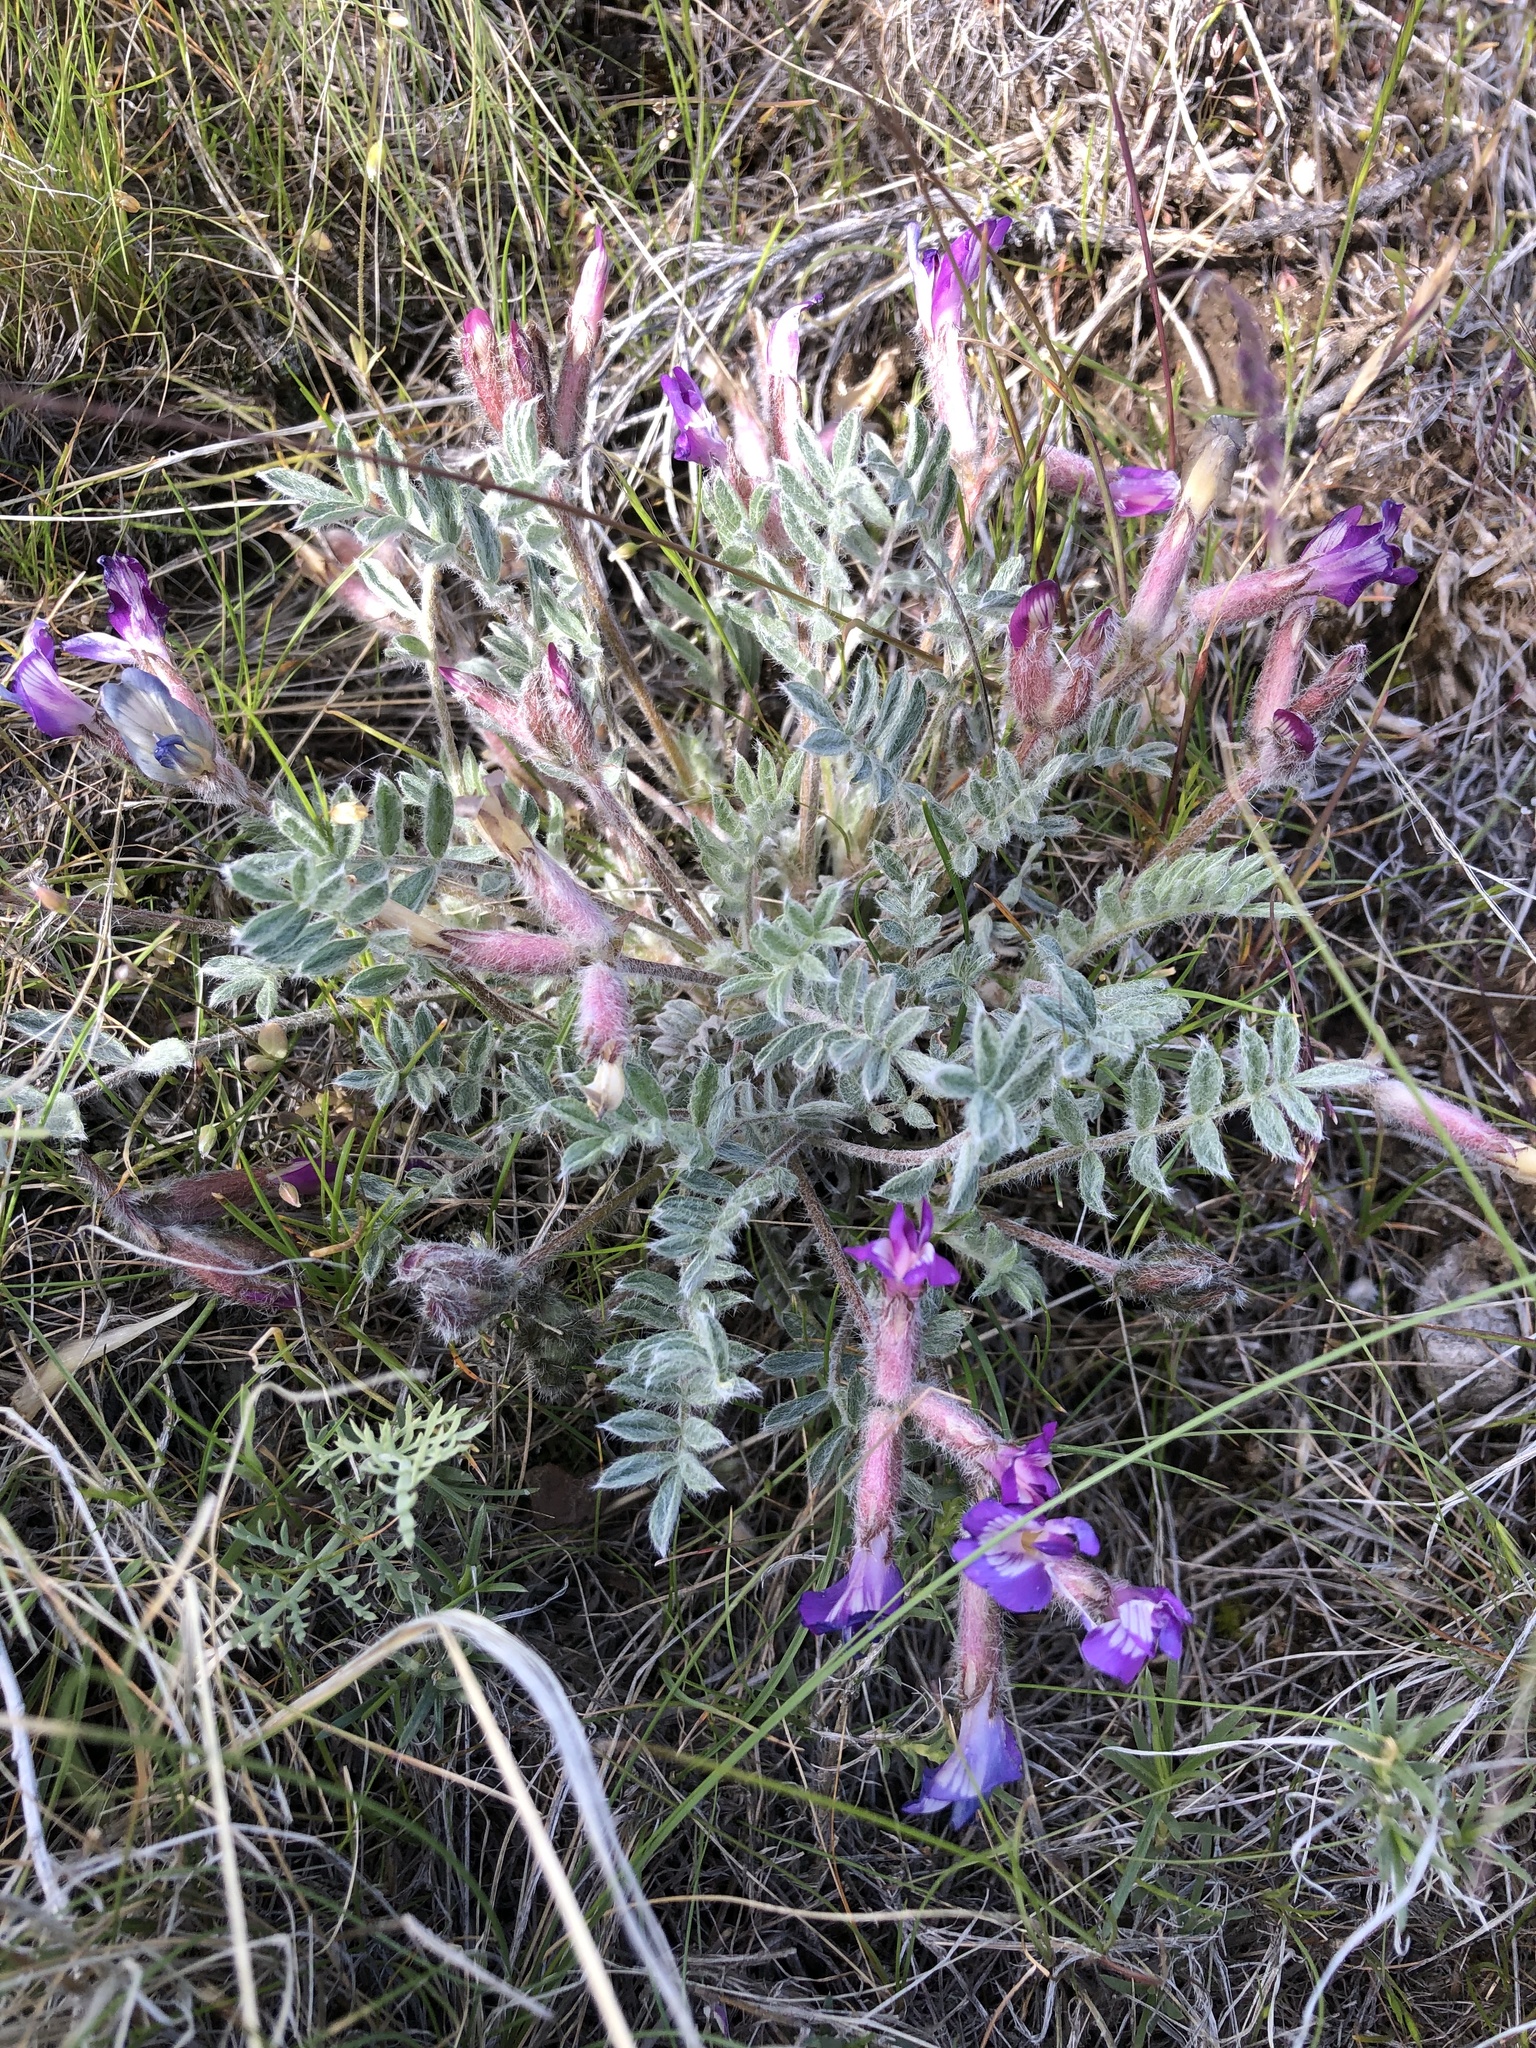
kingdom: Plantae
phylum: Tracheophyta
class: Magnoliopsida
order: Fabales
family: Fabaceae
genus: Astragalus
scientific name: Astragalus purshii
